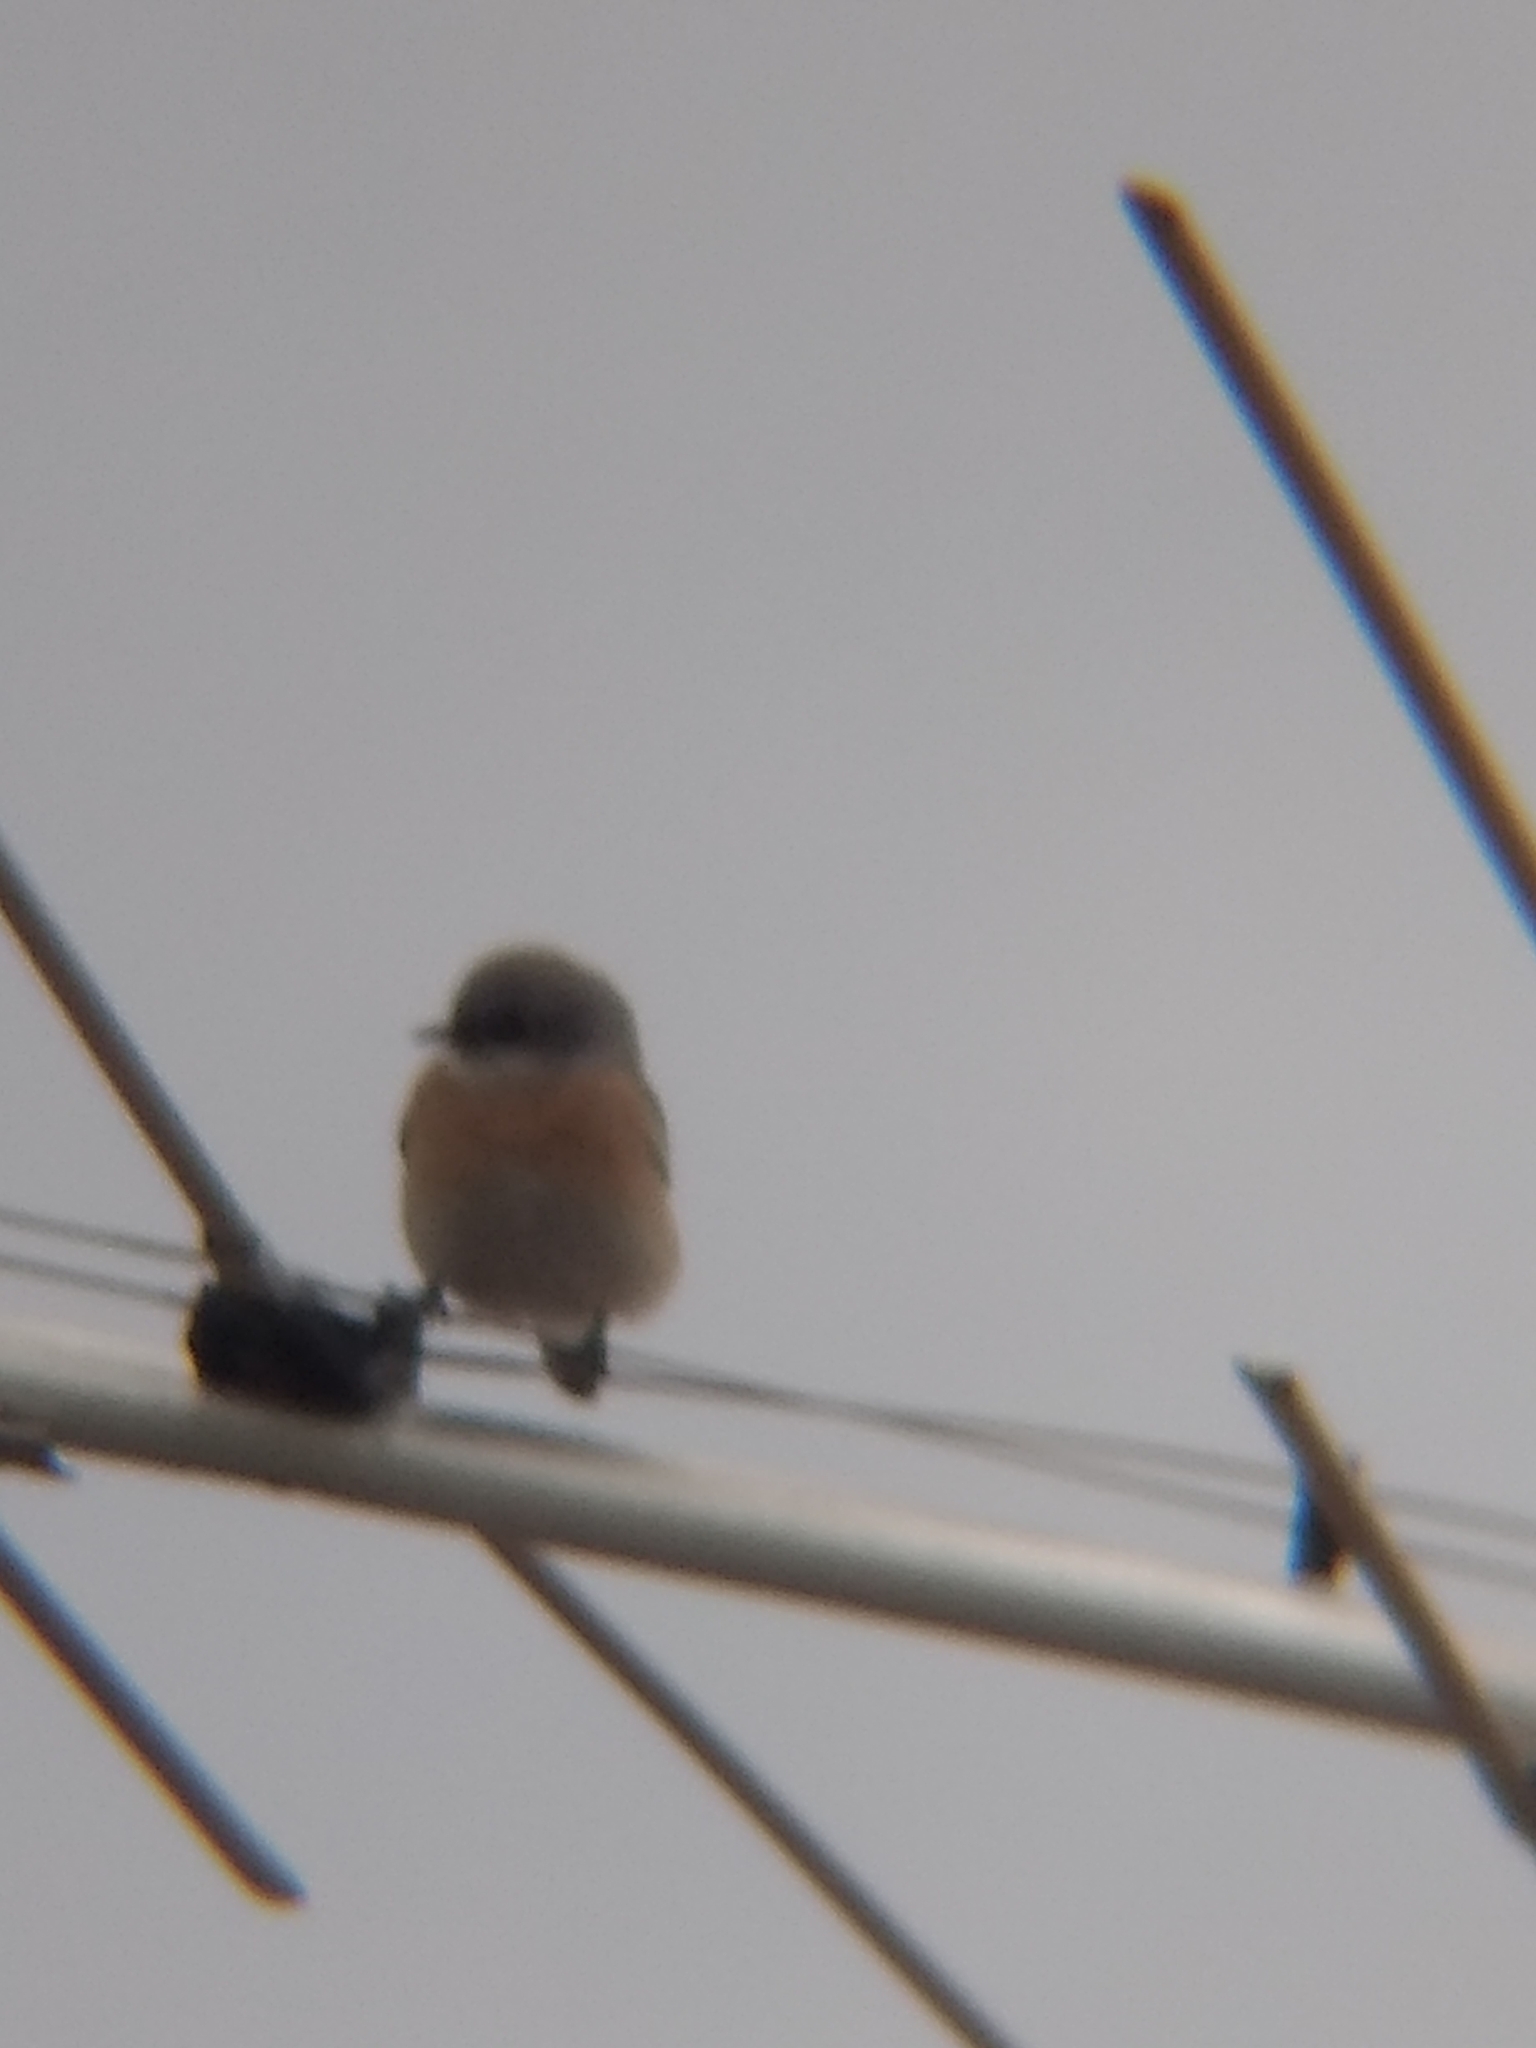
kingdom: Animalia
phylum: Chordata
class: Aves
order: Passeriformes
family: Turdidae
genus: Sialia
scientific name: Sialia mexicana
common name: Western bluebird
